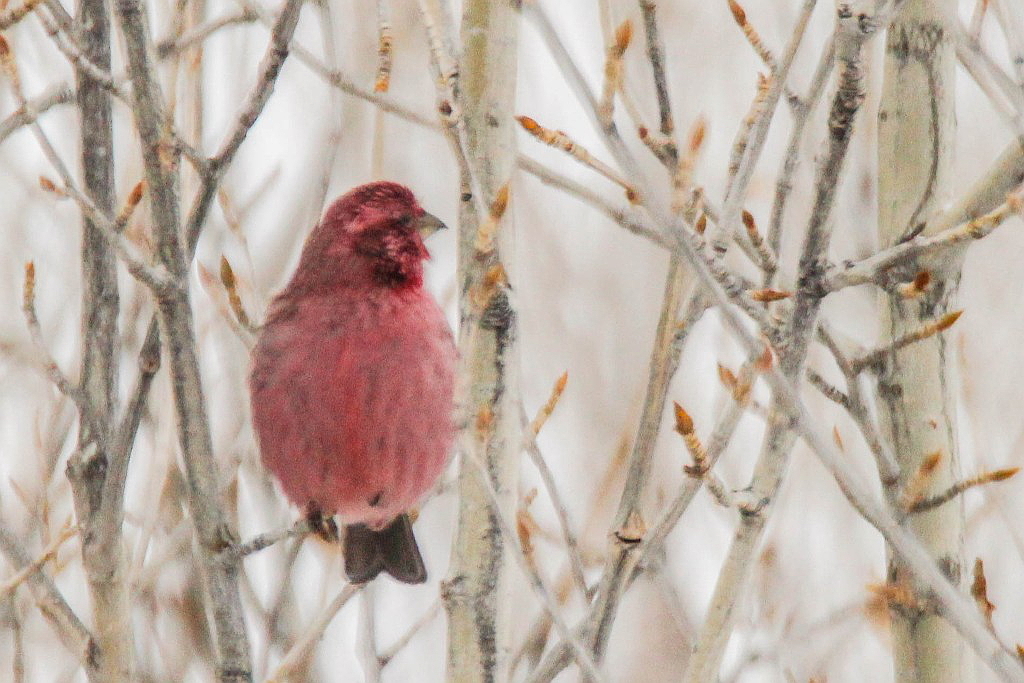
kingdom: Animalia
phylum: Chordata
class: Aves
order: Passeriformes
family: Fringillidae
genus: Carpodacus
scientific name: Carpodacus rhodochlamys
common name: Red-mantled rosefinch
